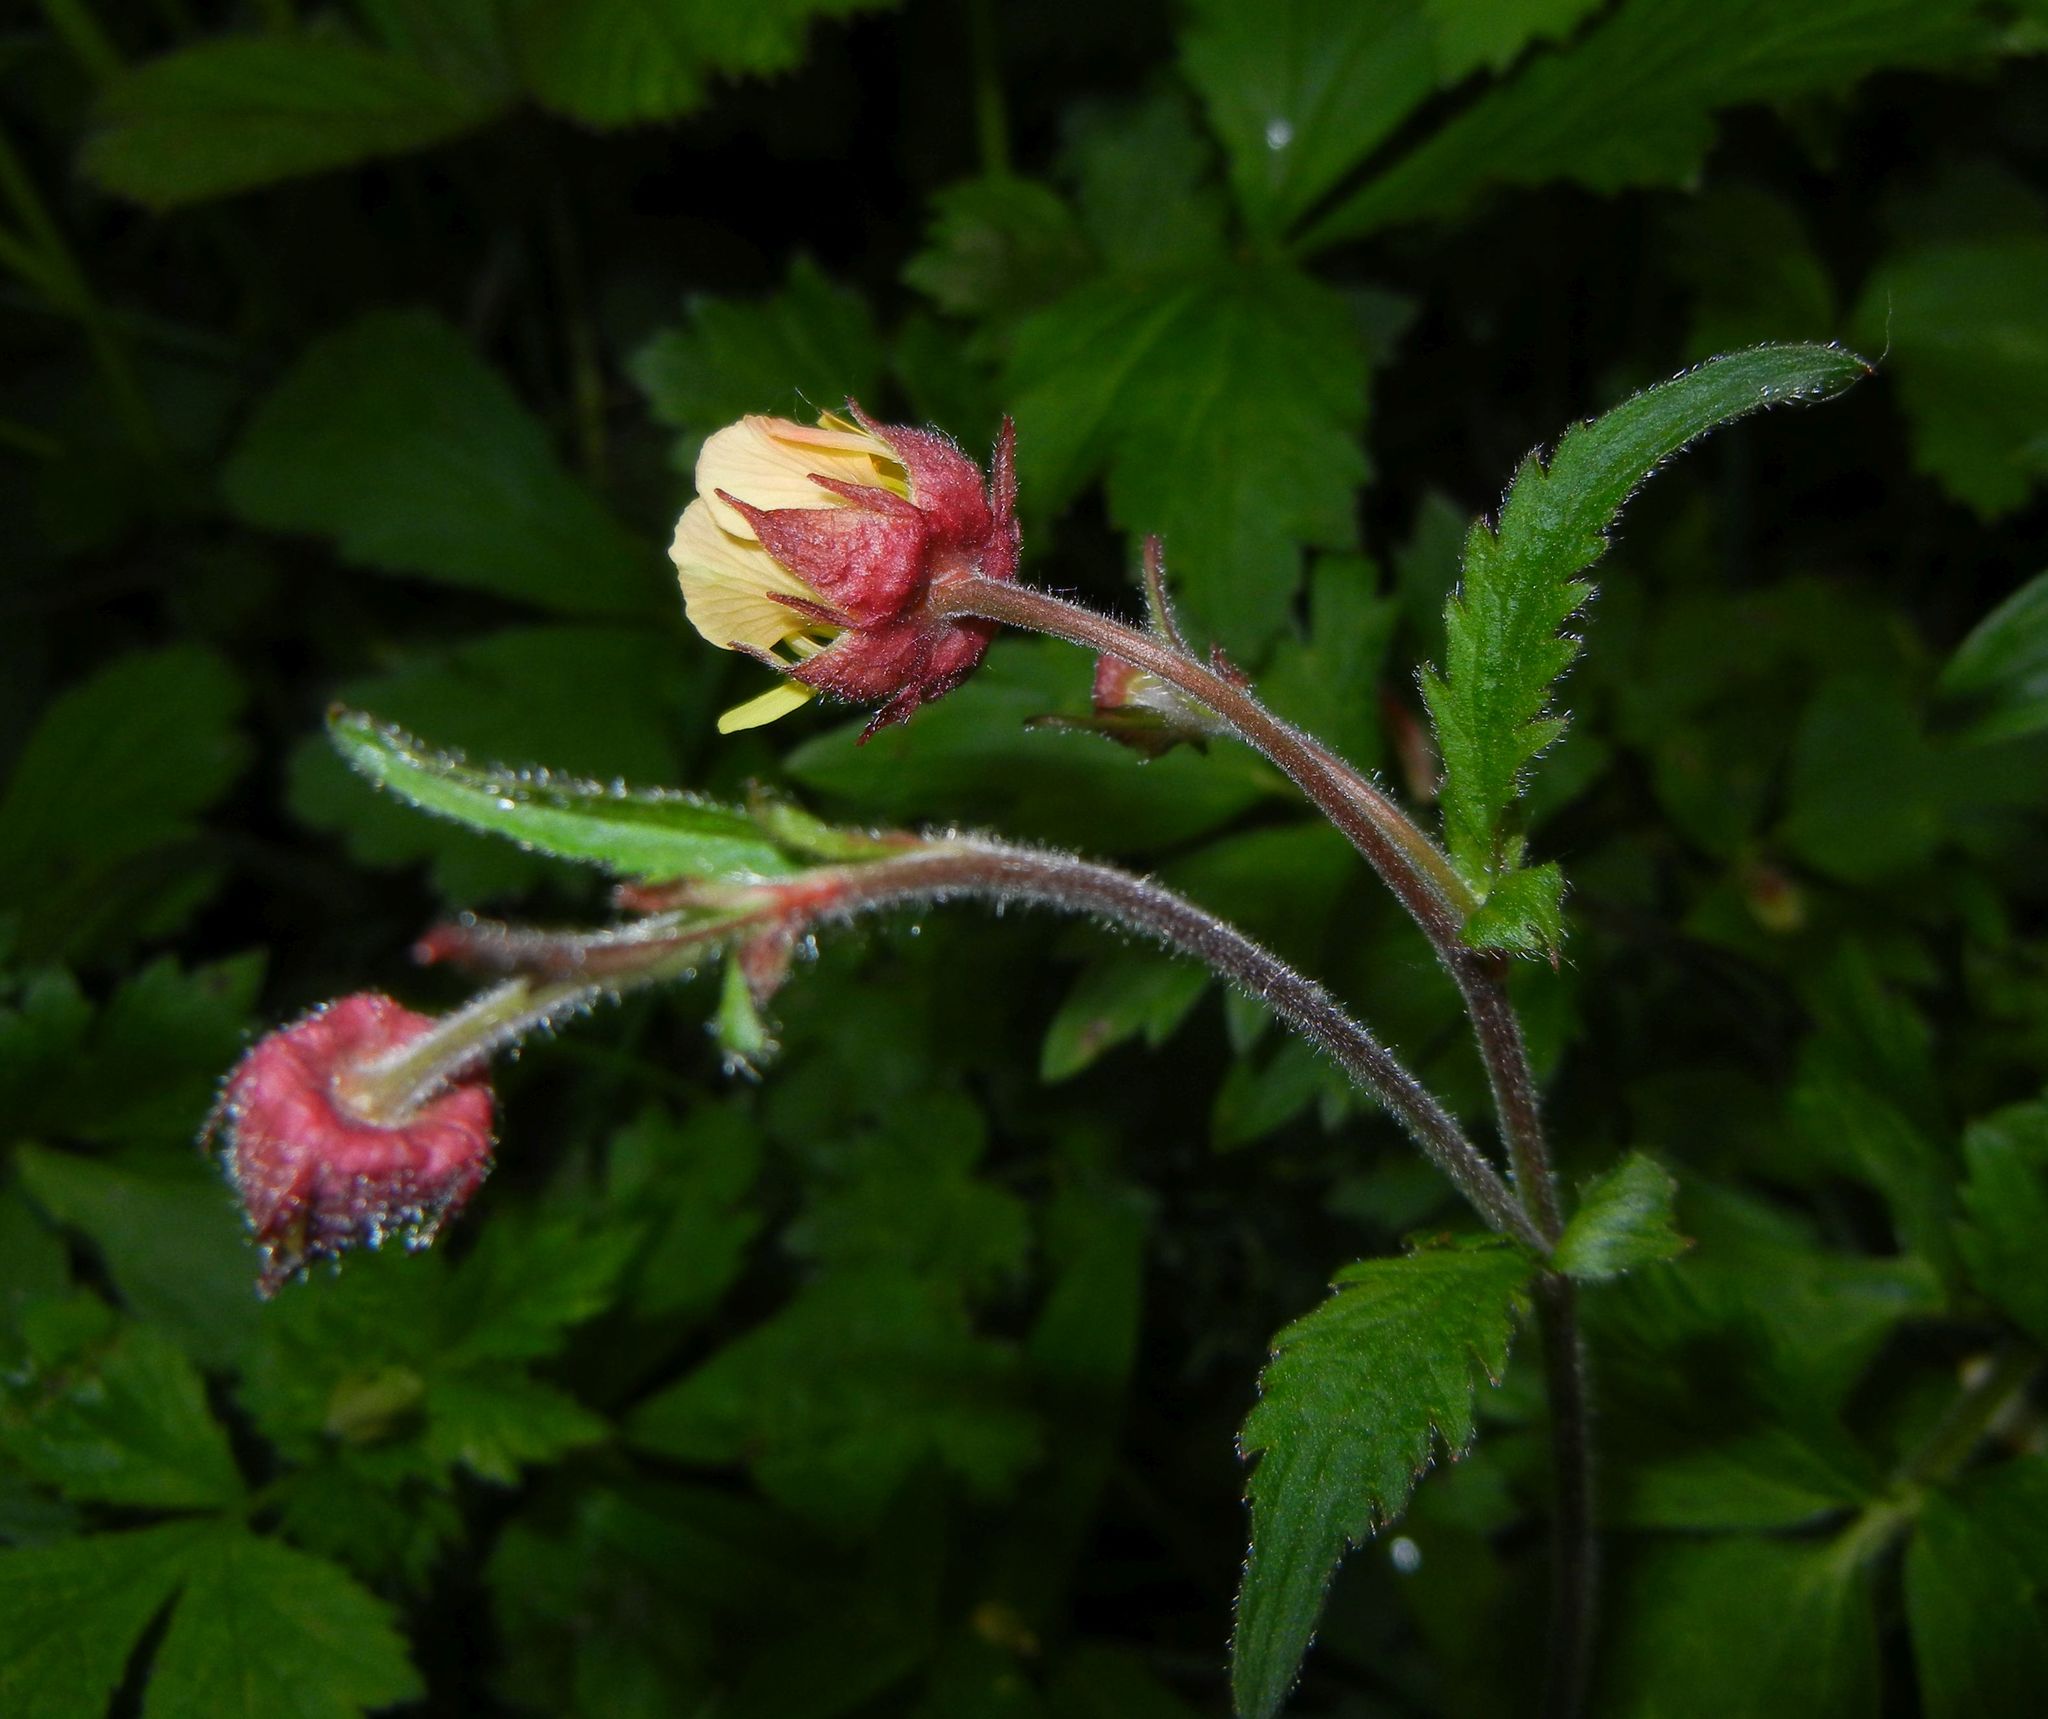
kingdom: Plantae
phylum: Tracheophyta
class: Magnoliopsida
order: Rosales
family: Rosaceae
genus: Geum
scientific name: Geum intermedium
